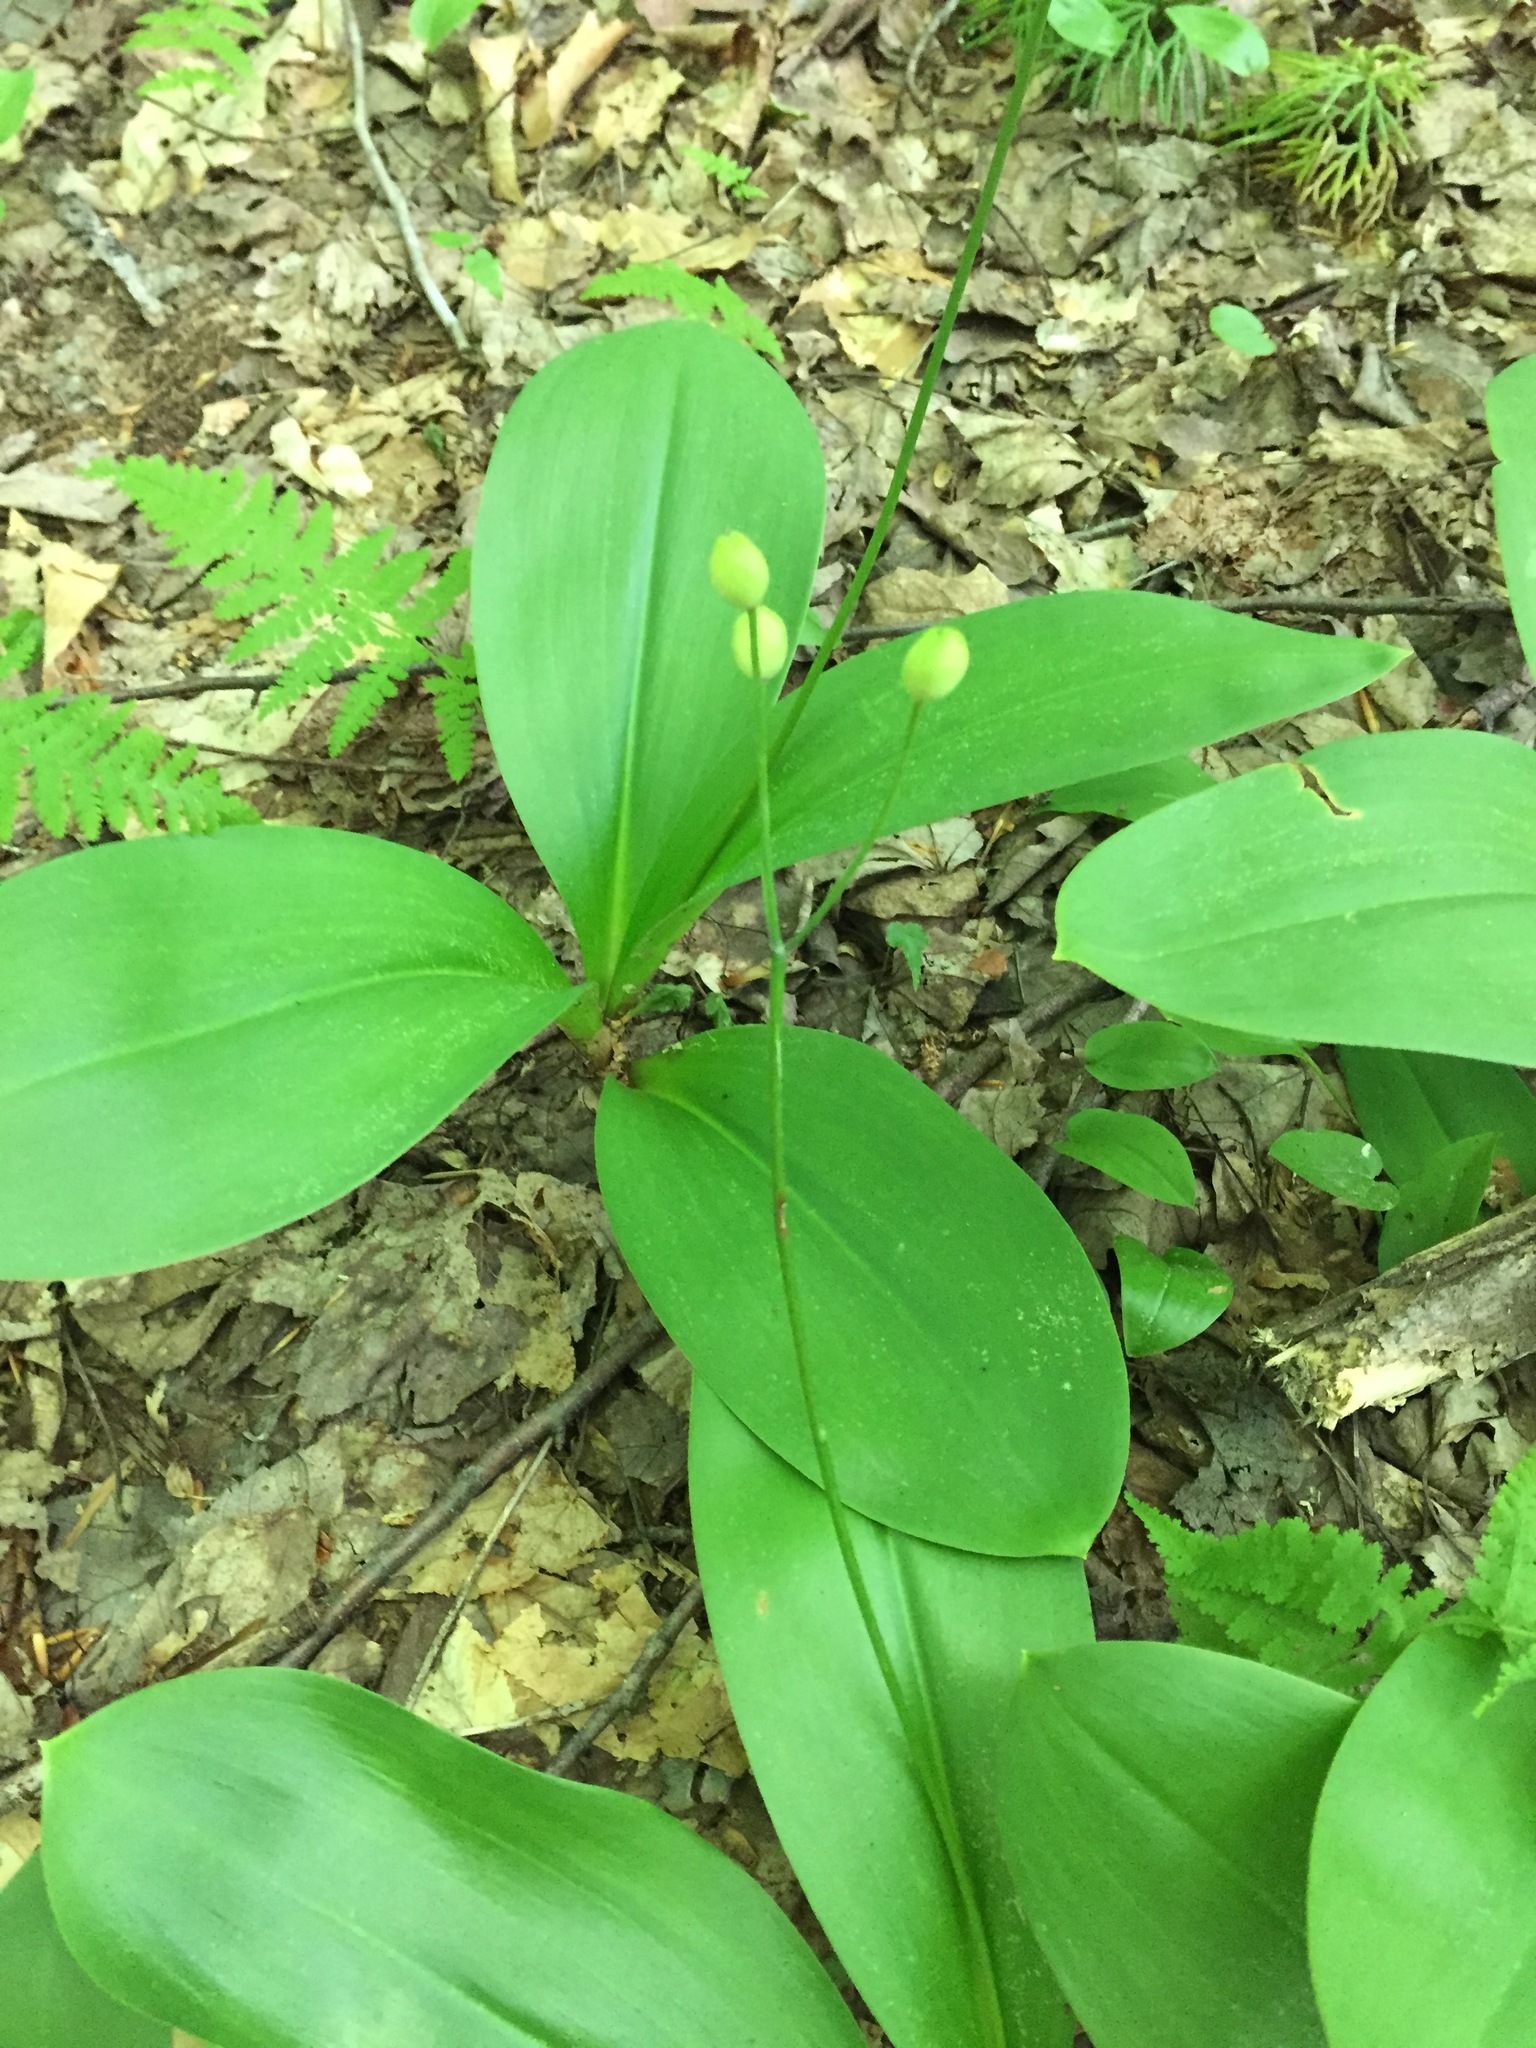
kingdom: Plantae
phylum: Tracheophyta
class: Liliopsida
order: Liliales
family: Liliaceae
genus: Clintonia
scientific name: Clintonia borealis
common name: Yellow clintonia
